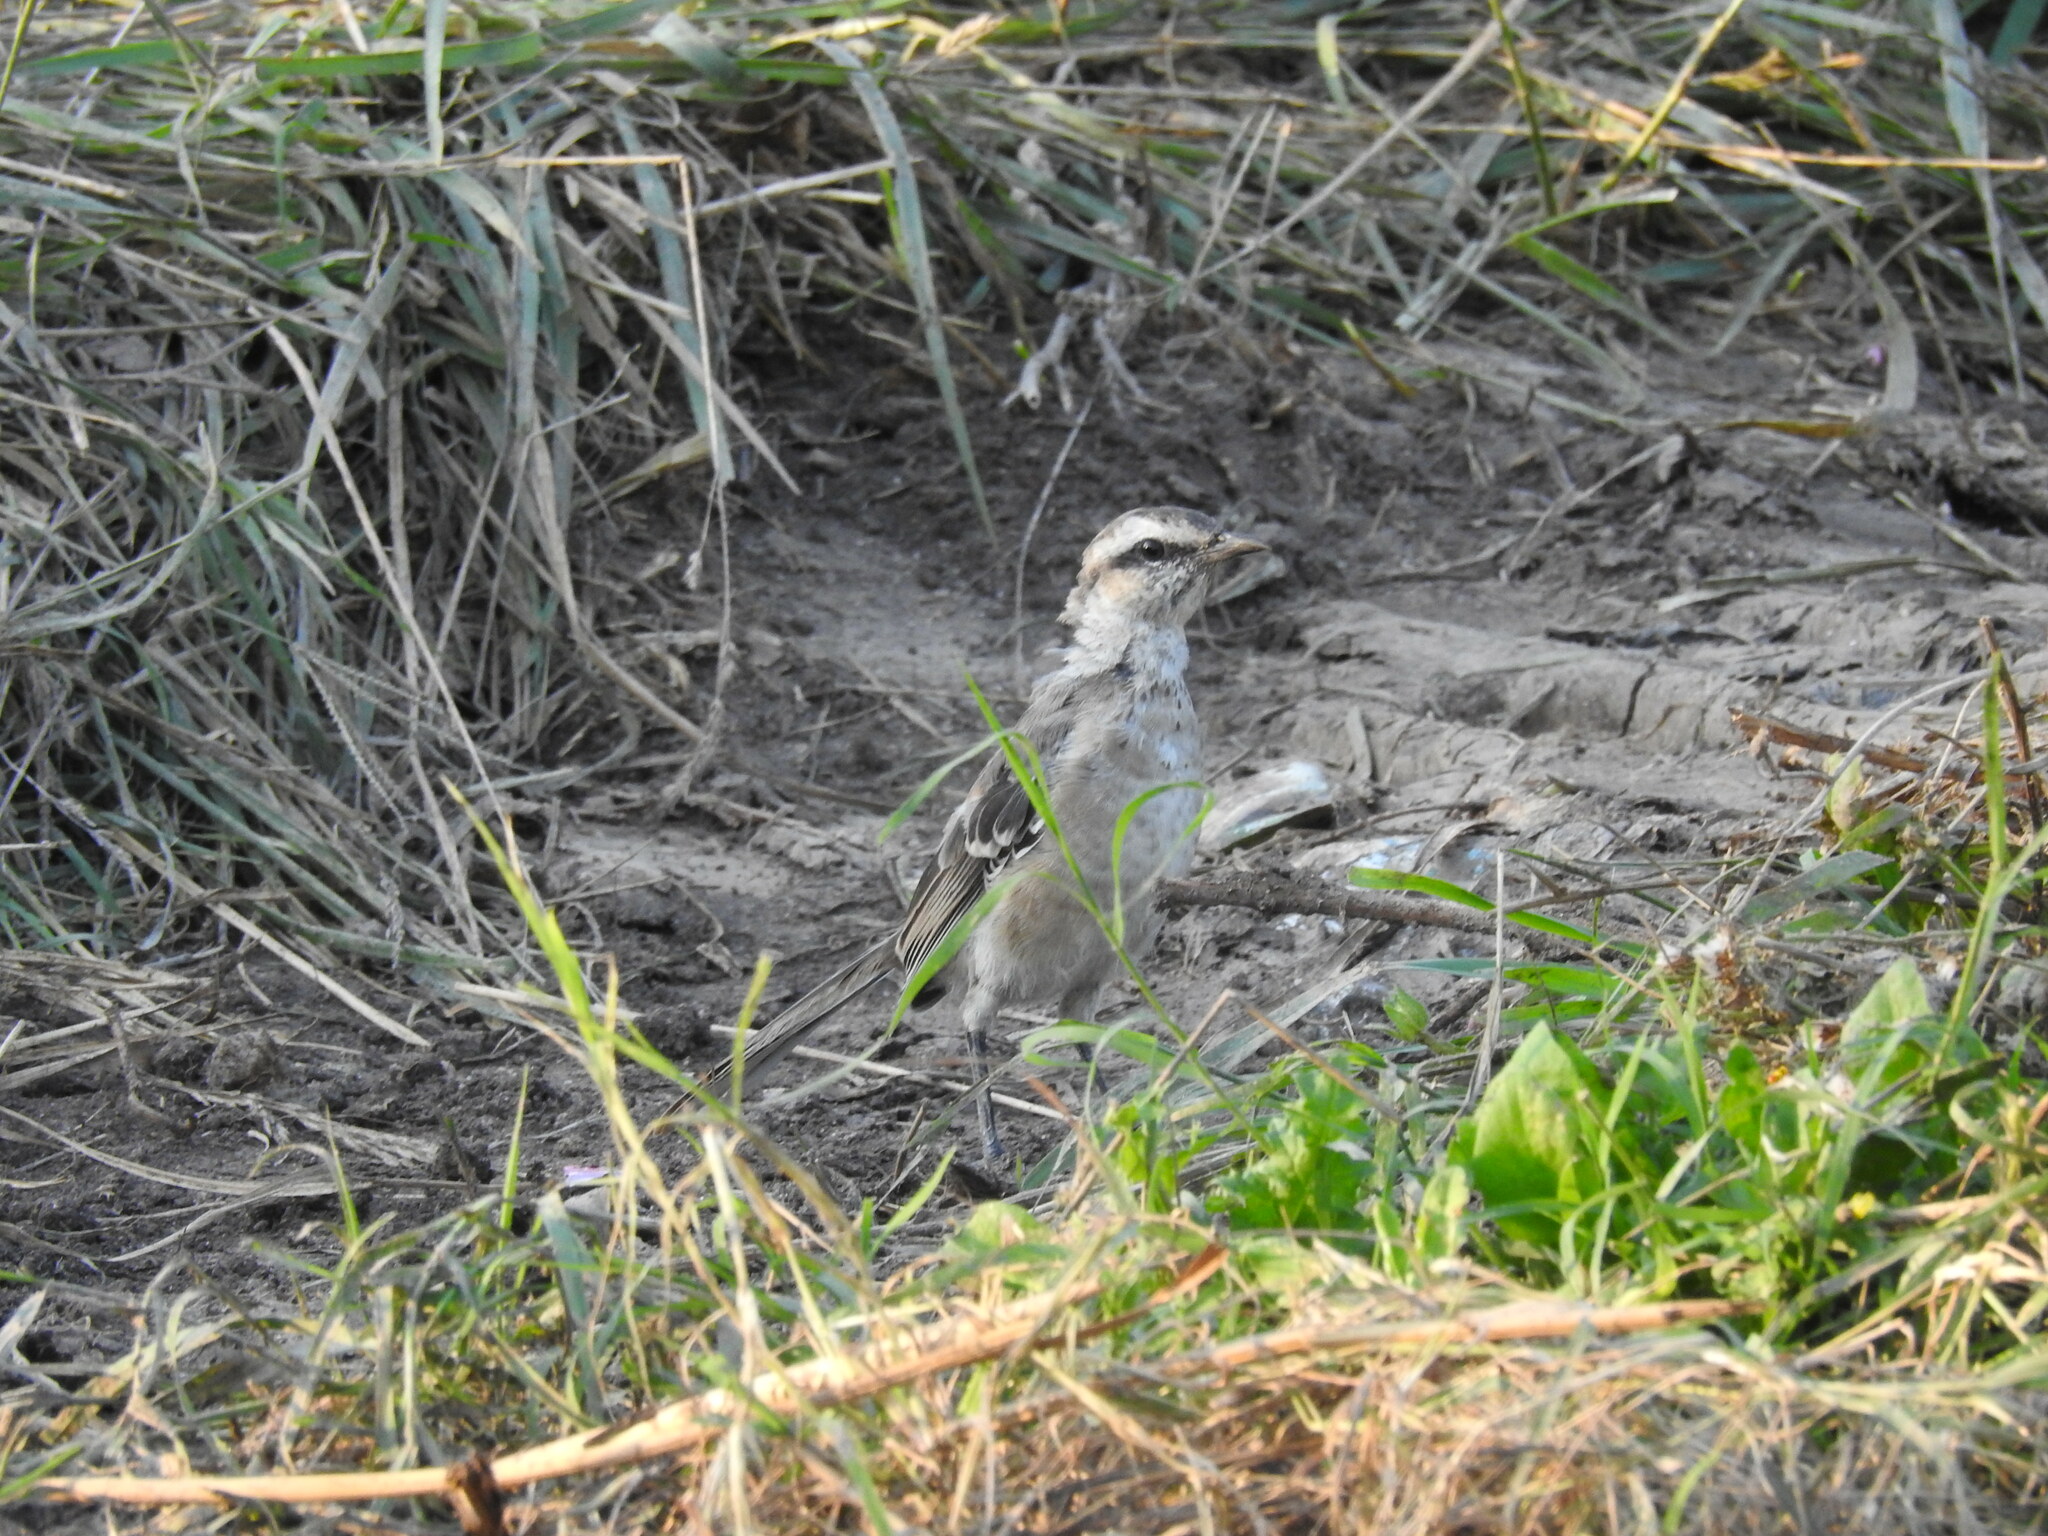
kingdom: Animalia
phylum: Chordata
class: Aves
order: Passeriformes
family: Mimidae
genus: Mimus
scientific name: Mimus saturninus
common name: Chalk-browed mockingbird
